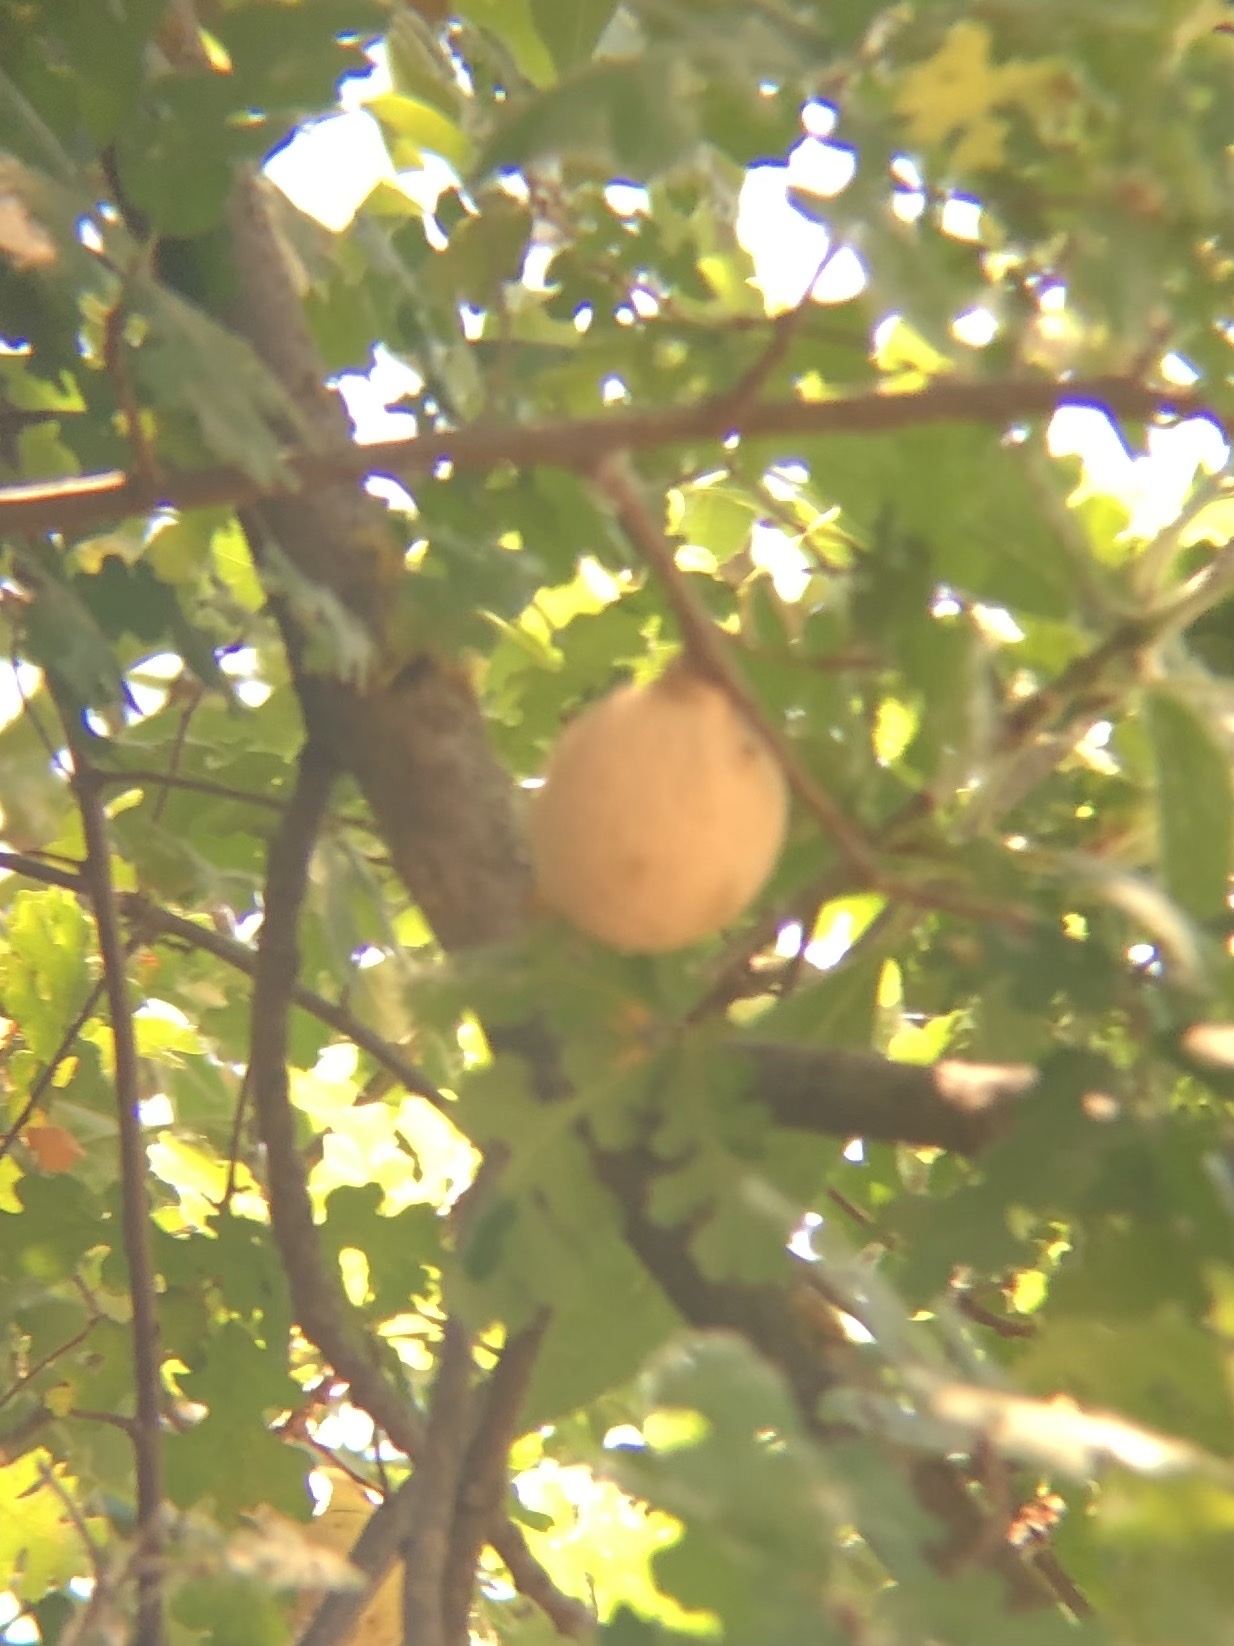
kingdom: Plantae
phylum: Tracheophyta
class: Magnoliopsida
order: Fagales
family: Fagaceae
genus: Quercus
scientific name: Quercus lobata
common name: Valley oak
